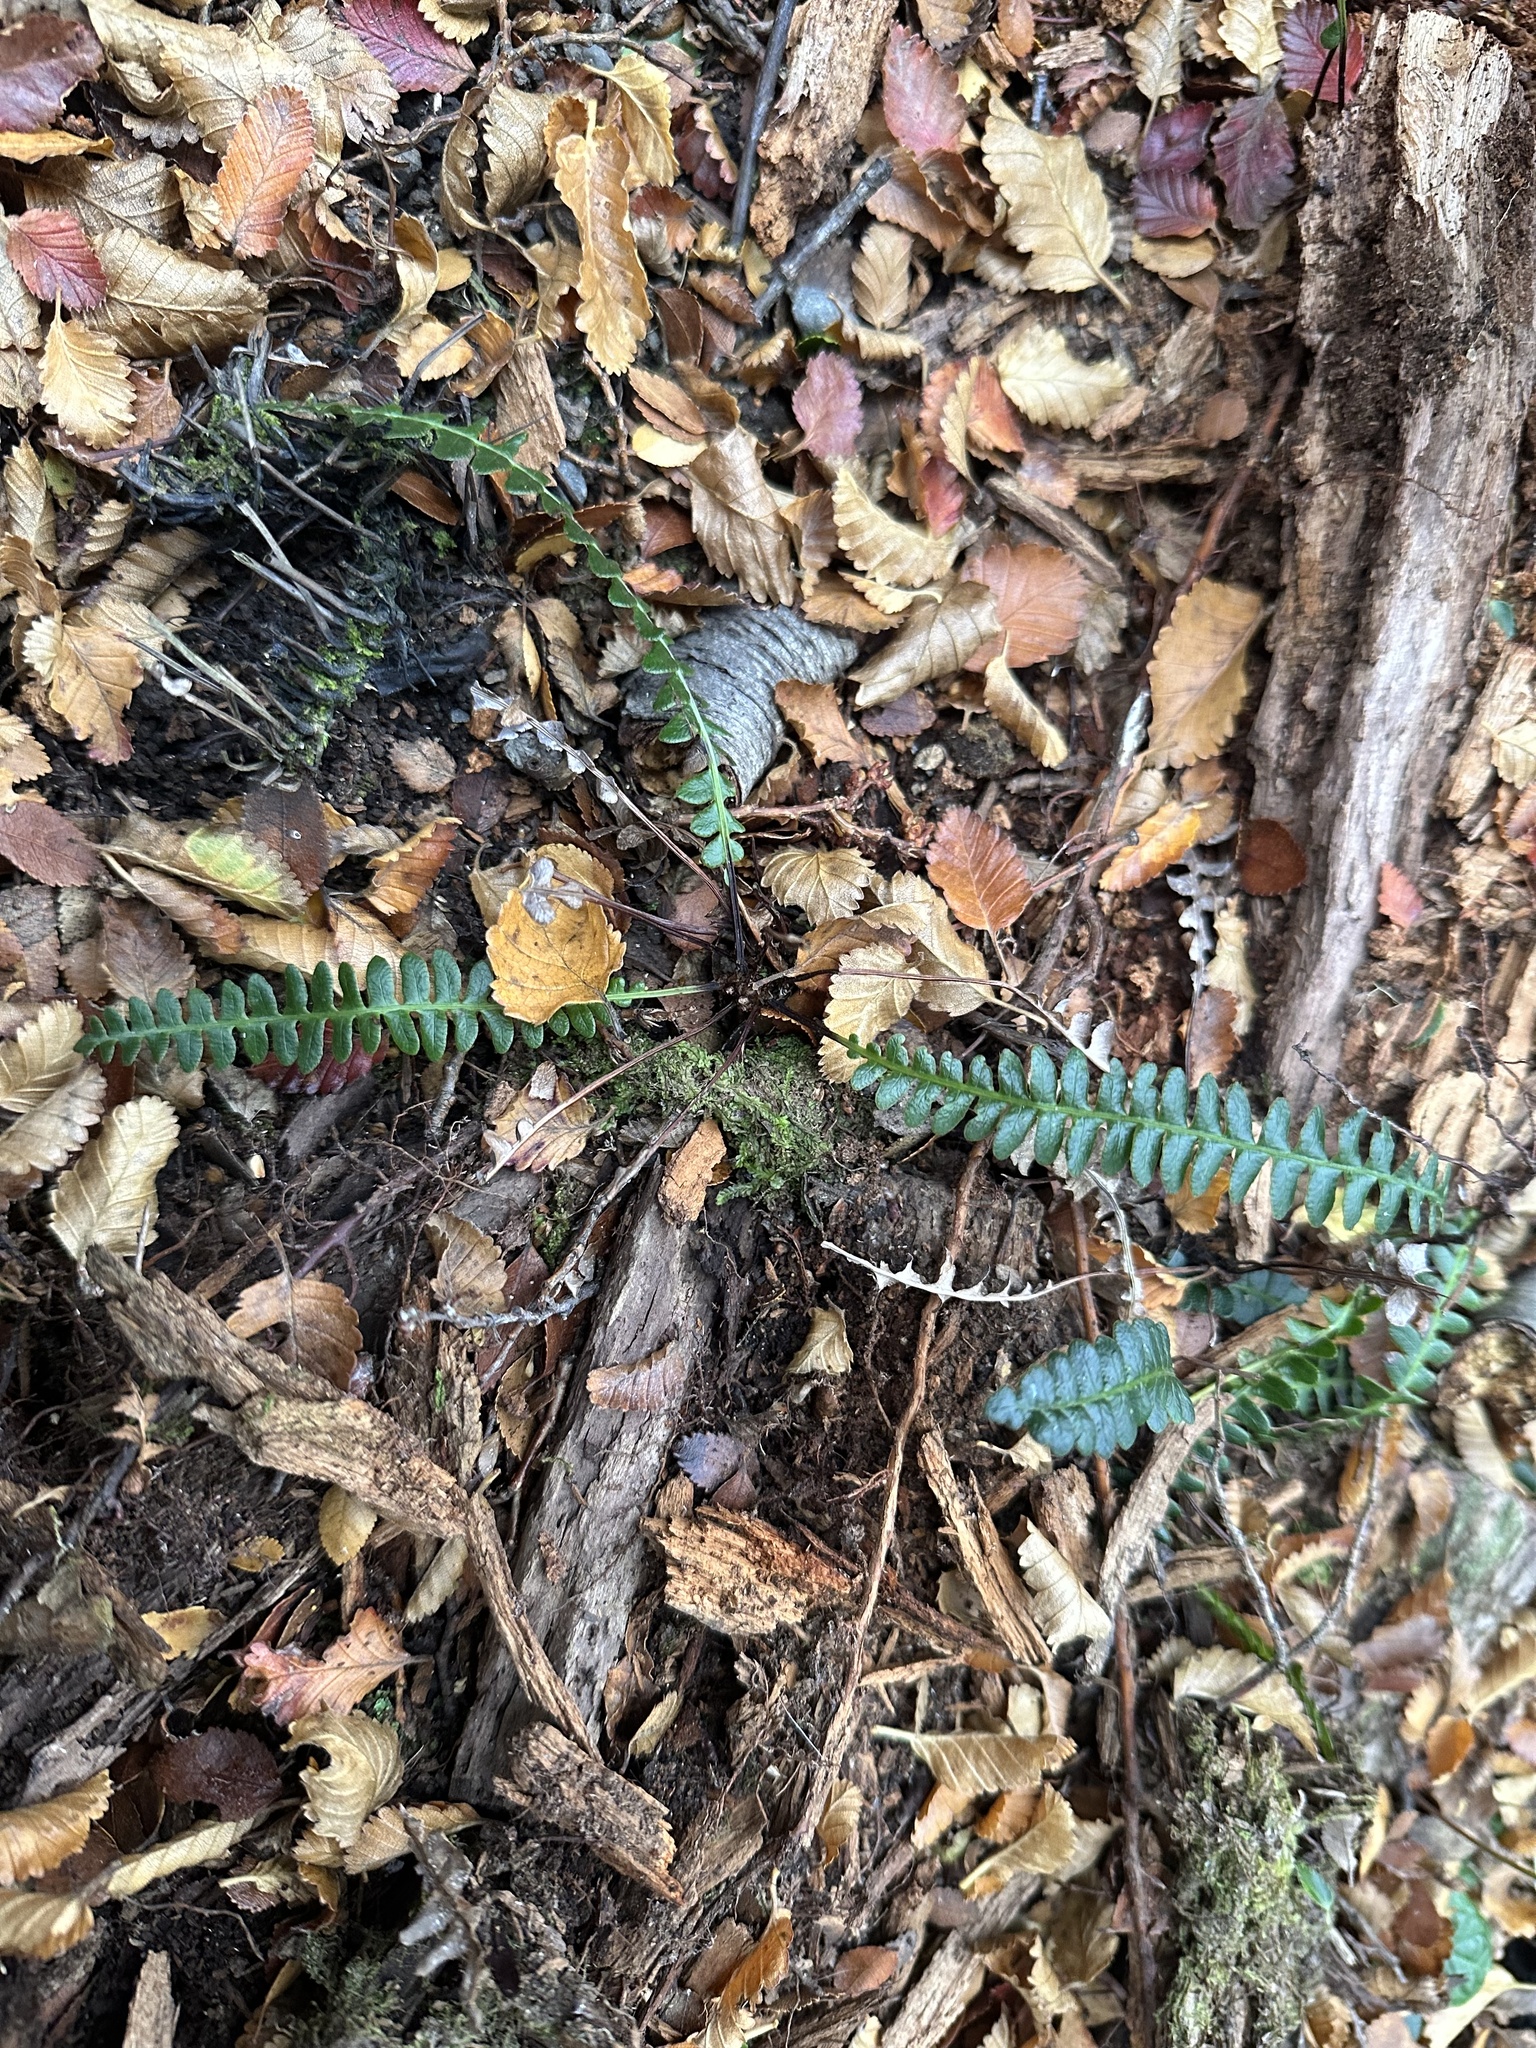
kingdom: Plantae
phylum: Tracheophyta
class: Polypodiopsida
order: Polypodiales
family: Blechnaceae
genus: Austroblechnum
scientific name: Austroblechnum penna-marina
